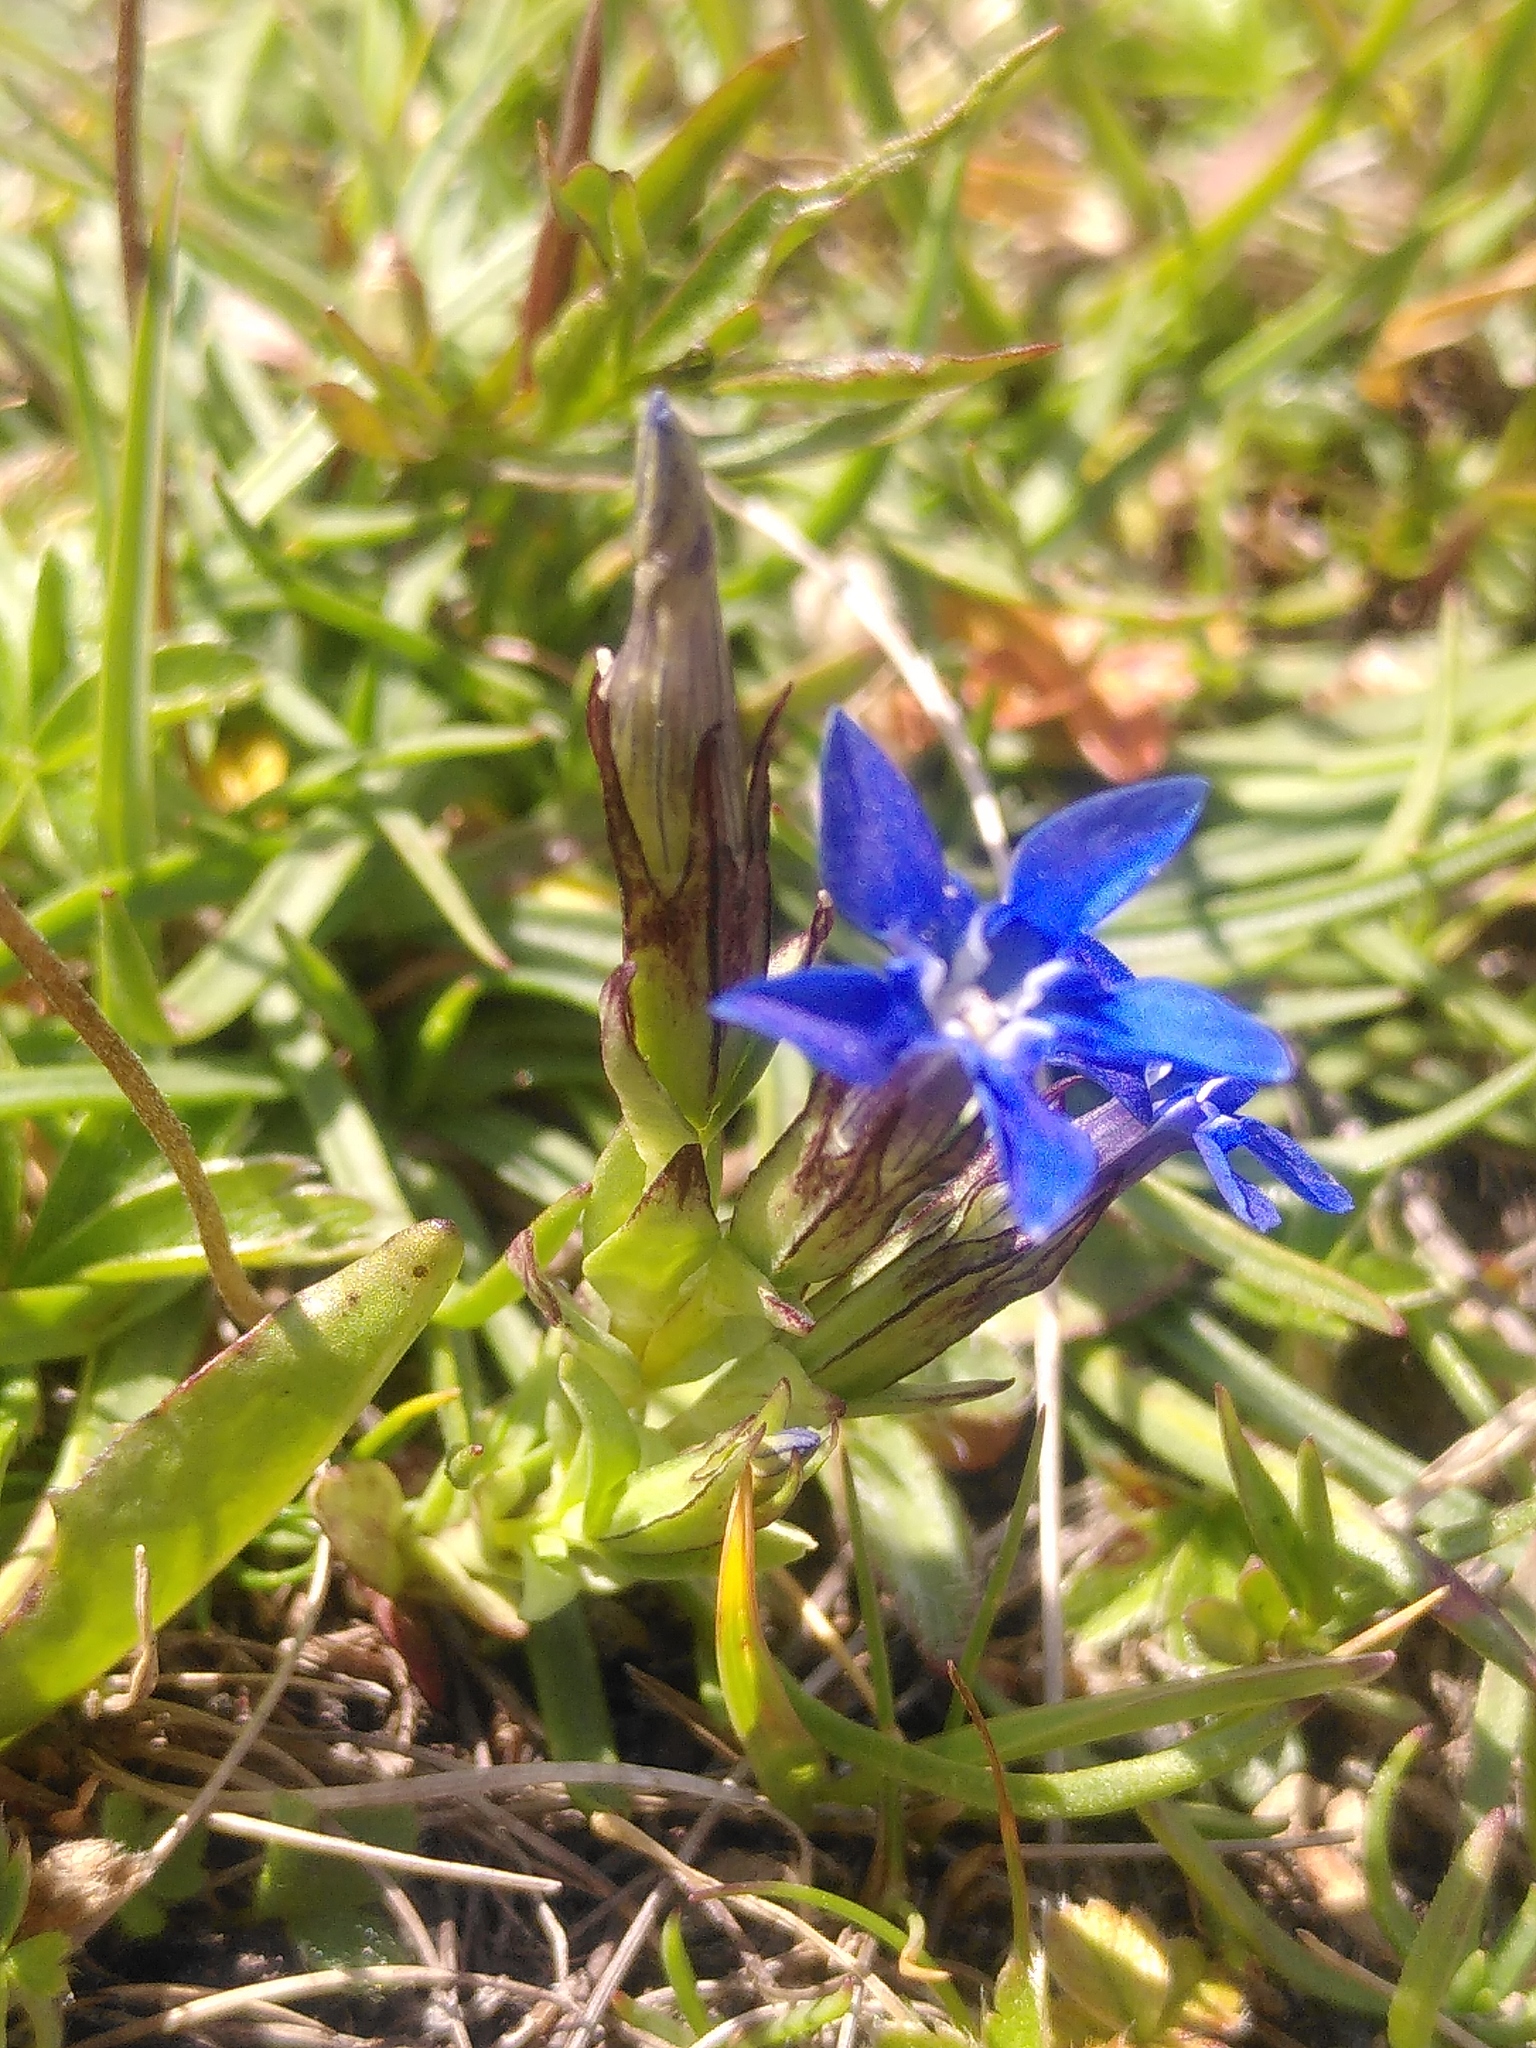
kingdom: Plantae
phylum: Tracheophyta
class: Magnoliopsida
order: Gentianales
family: Gentianaceae
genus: Gentiana
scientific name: Gentiana nivalis
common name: Alpine gentian
